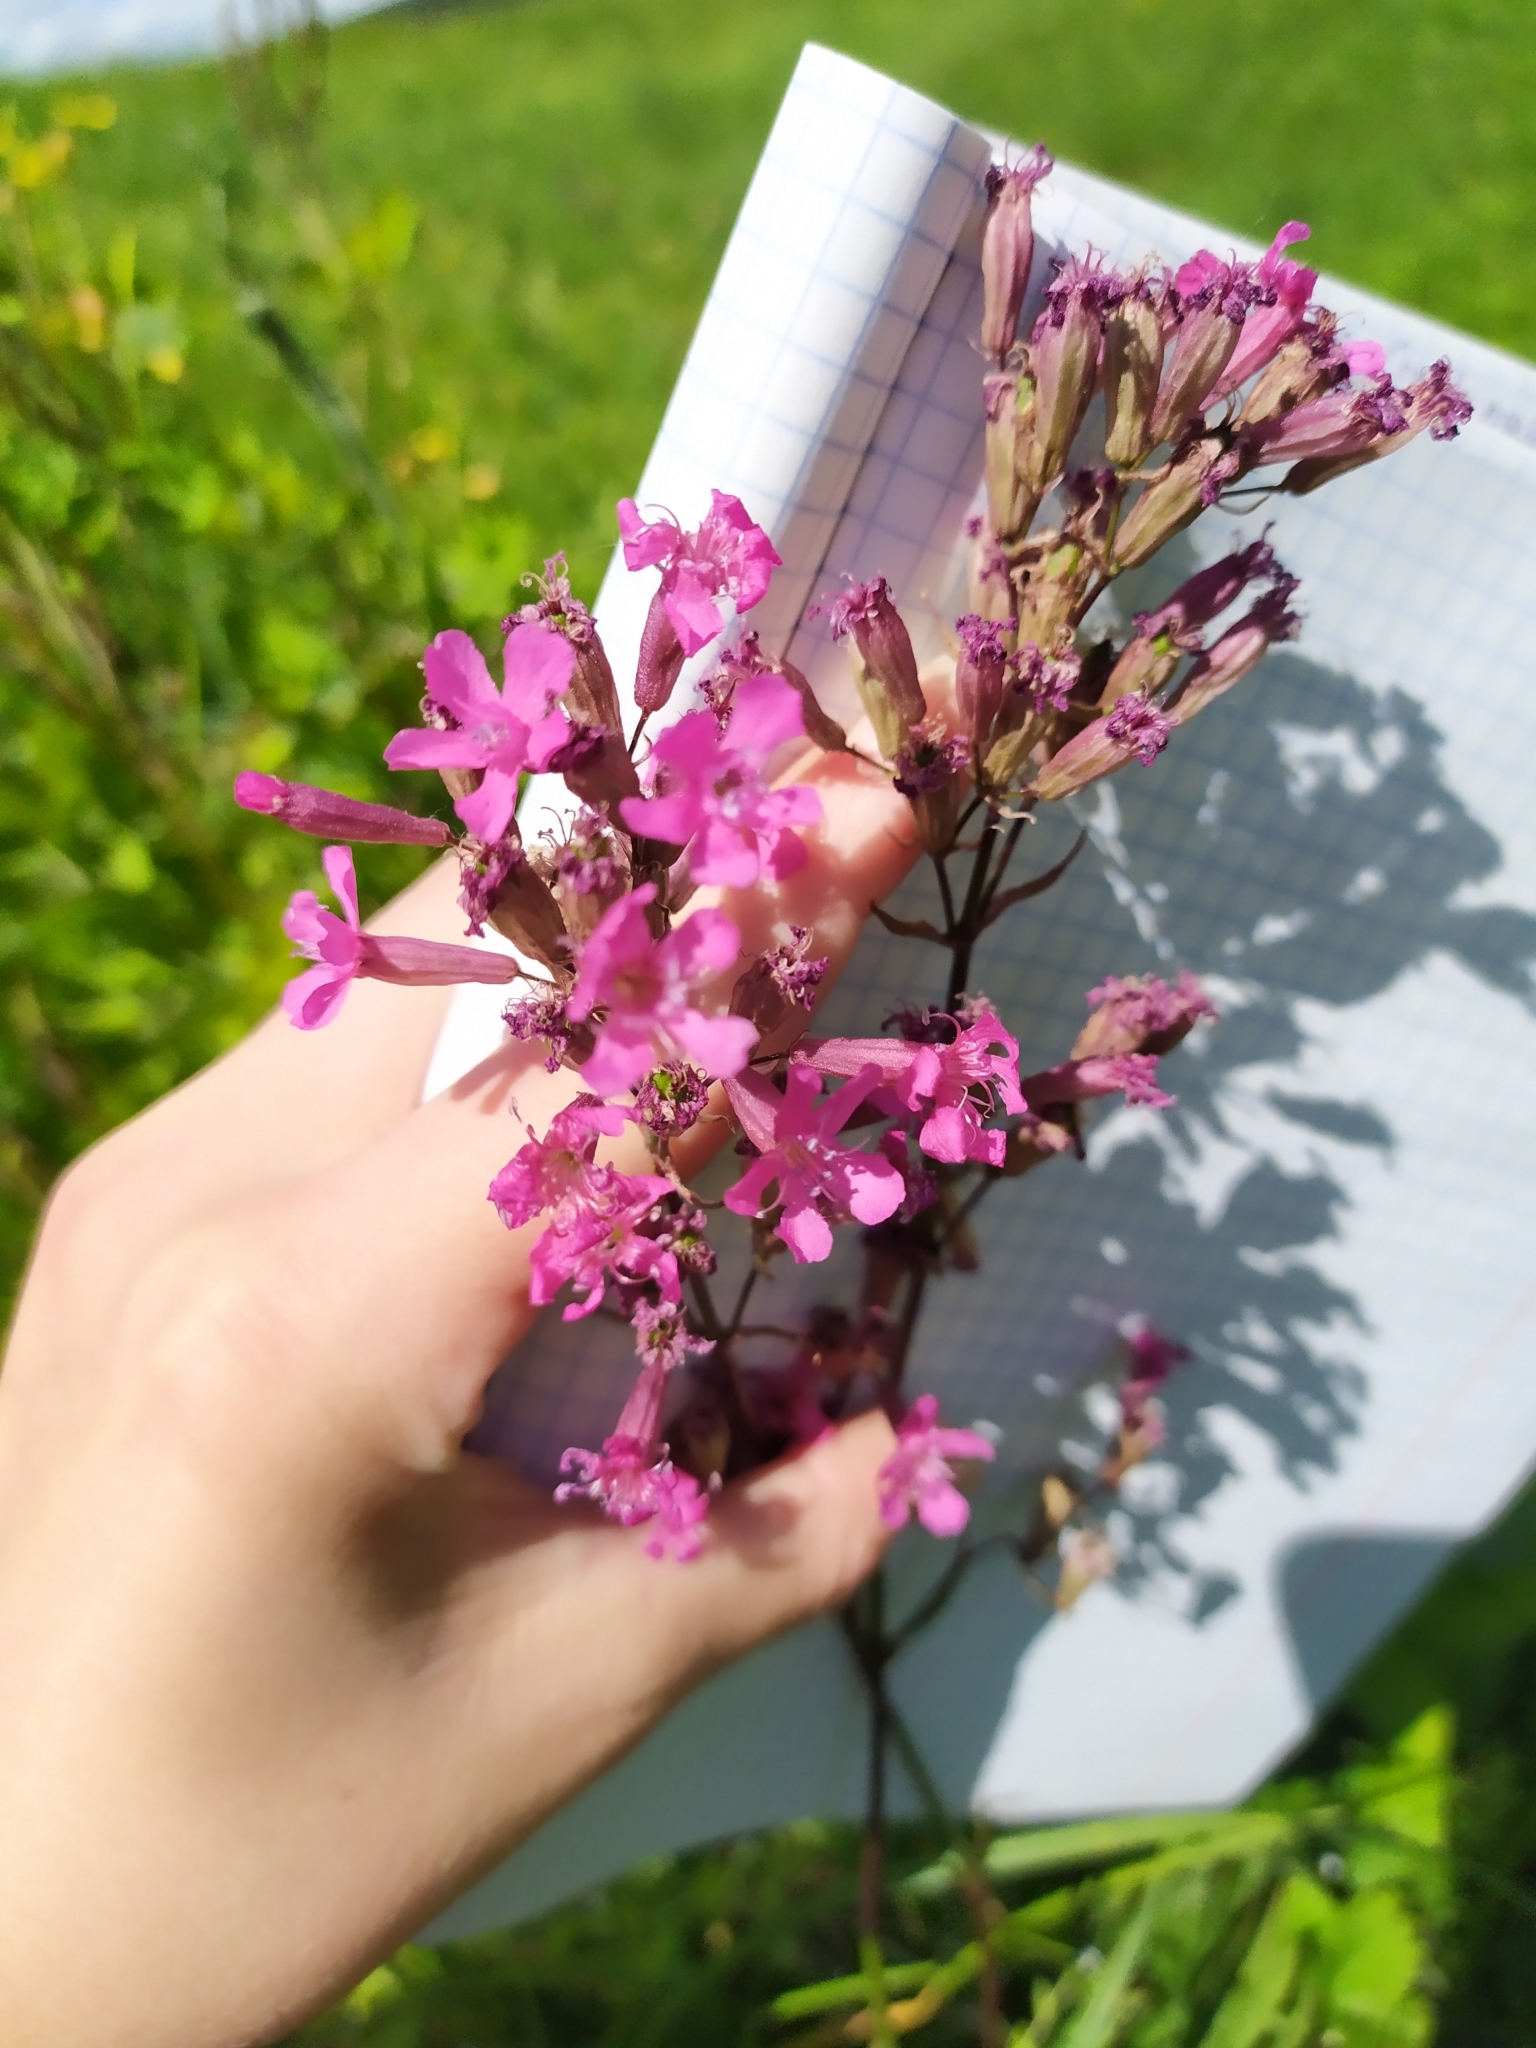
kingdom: Plantae
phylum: Tracheophyta
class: Magnoliopsida
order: Caryophyllales
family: Caryophyllaceae
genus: Viscaria
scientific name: Viscaria vulgaris
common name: Clammy campion
